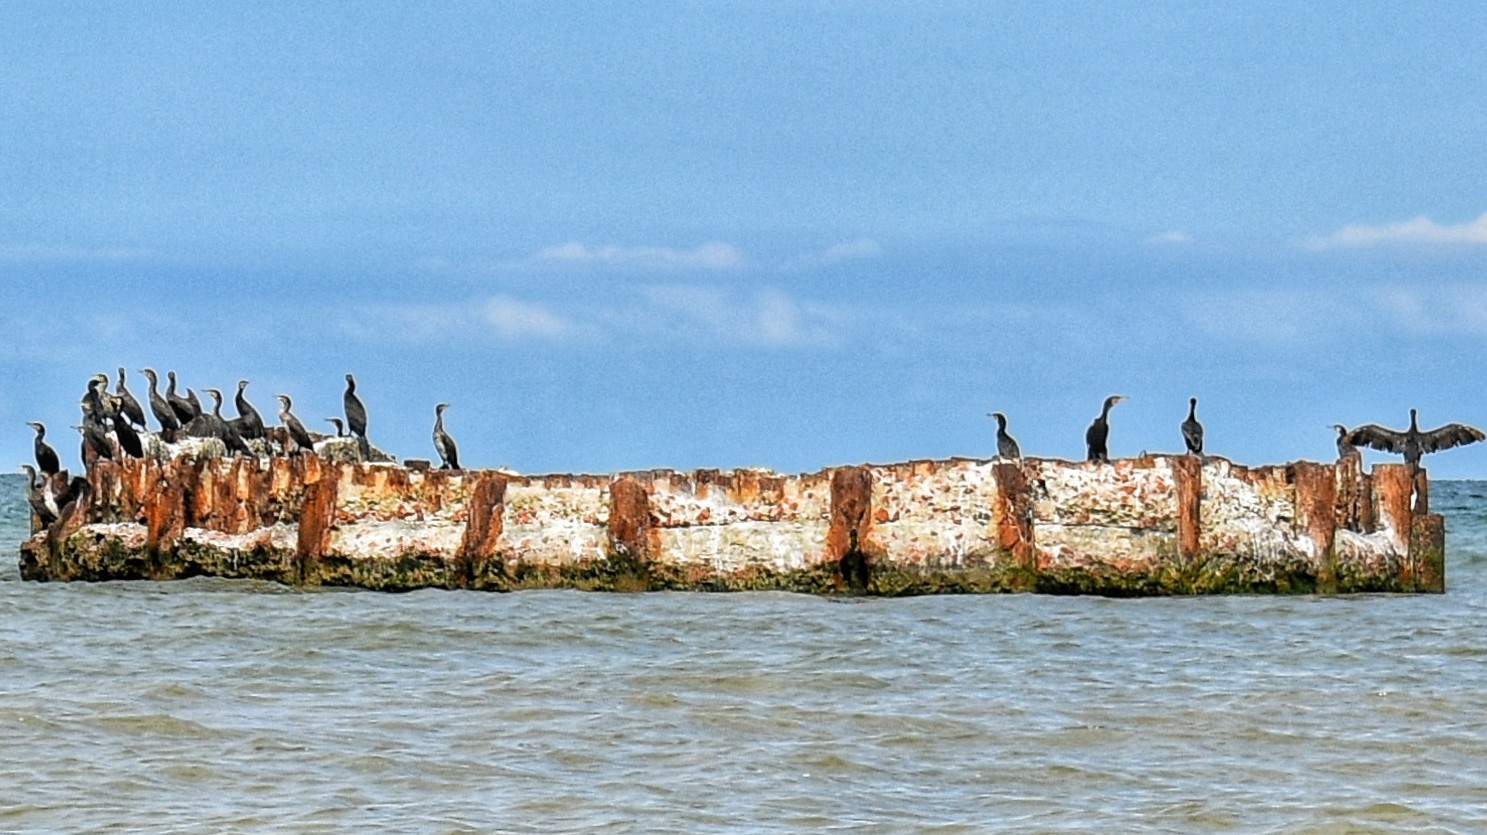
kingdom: Animalia
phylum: Chordata
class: Aves
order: Suliformes
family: Phalacrocoracidae
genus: Phalacrocorax
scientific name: Phalacrocorax carbo
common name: Great cormorant
